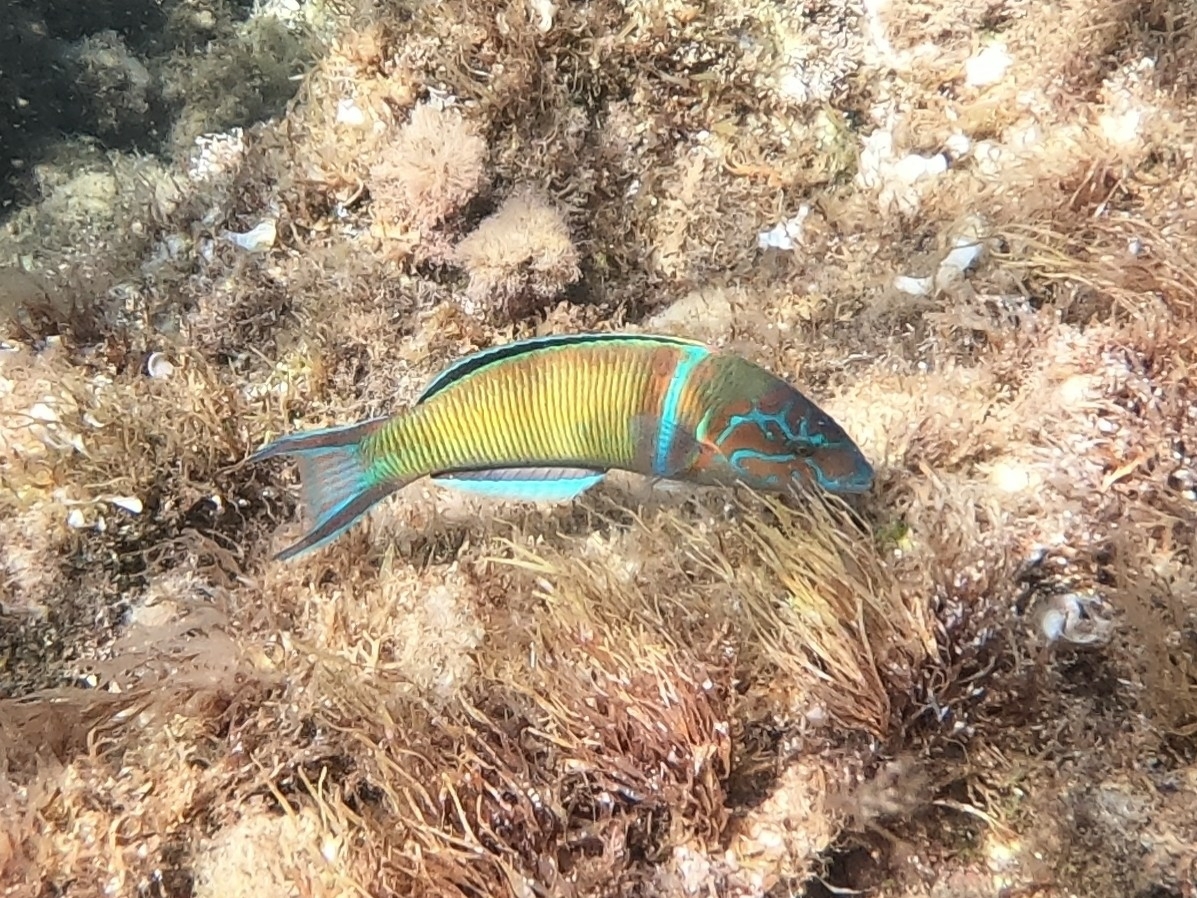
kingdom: Animalia
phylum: Chordata
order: Perciformes
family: Labridae
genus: Thalassoma
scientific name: Thalassoma pavo
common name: Ornate wrasse
